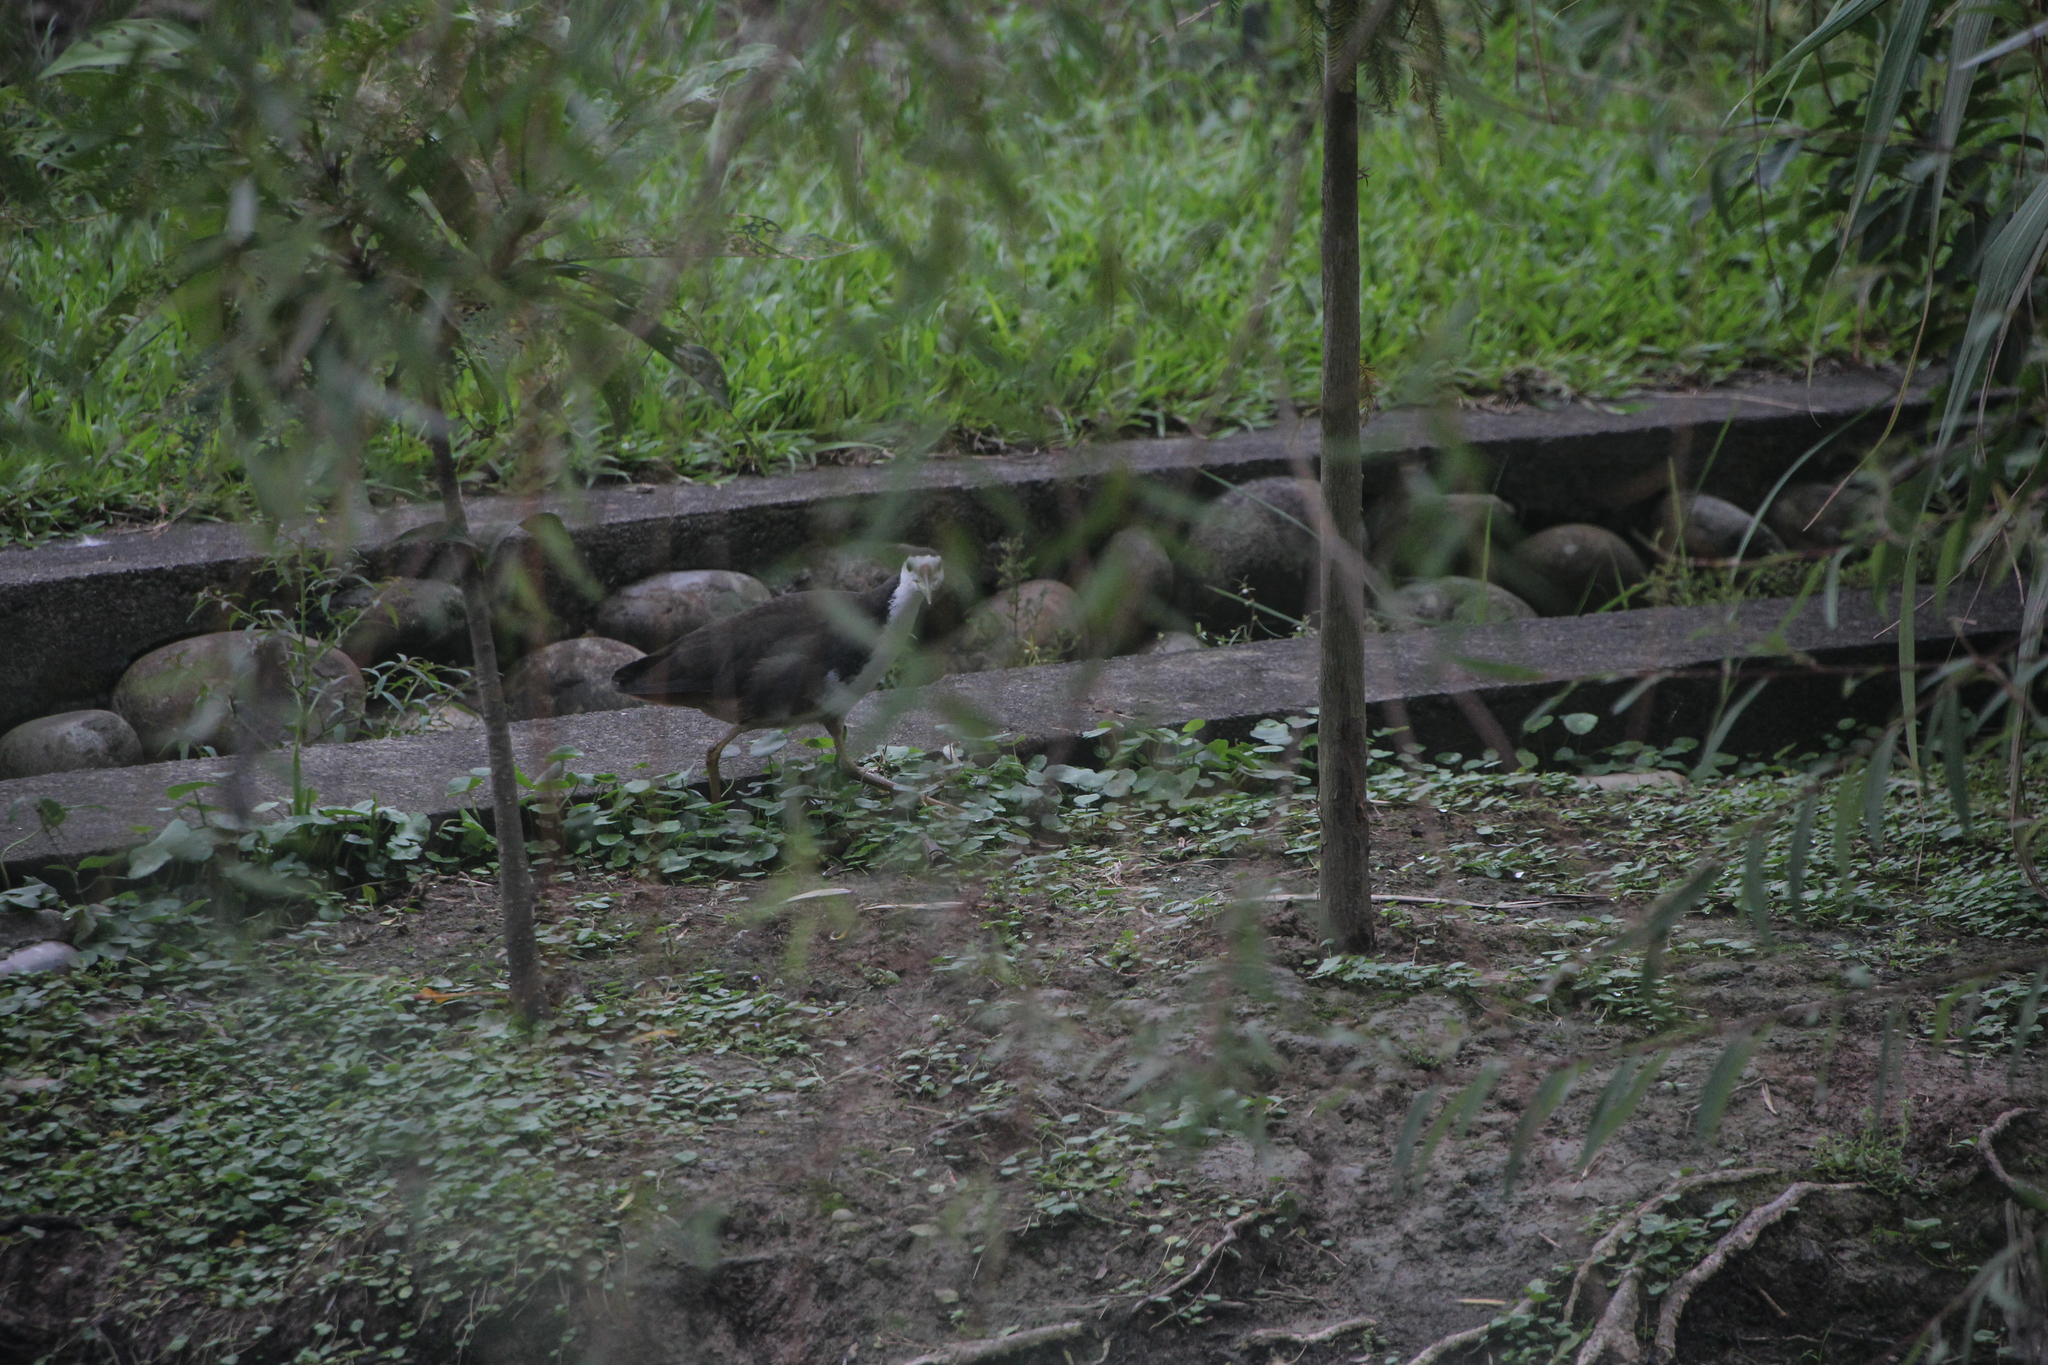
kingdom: Animalia
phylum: Chordata
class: Aves
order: Gruiformes
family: Rallidae
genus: Amaurornis
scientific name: Amaurornis phoenicurus
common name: White-breasted waterhen
